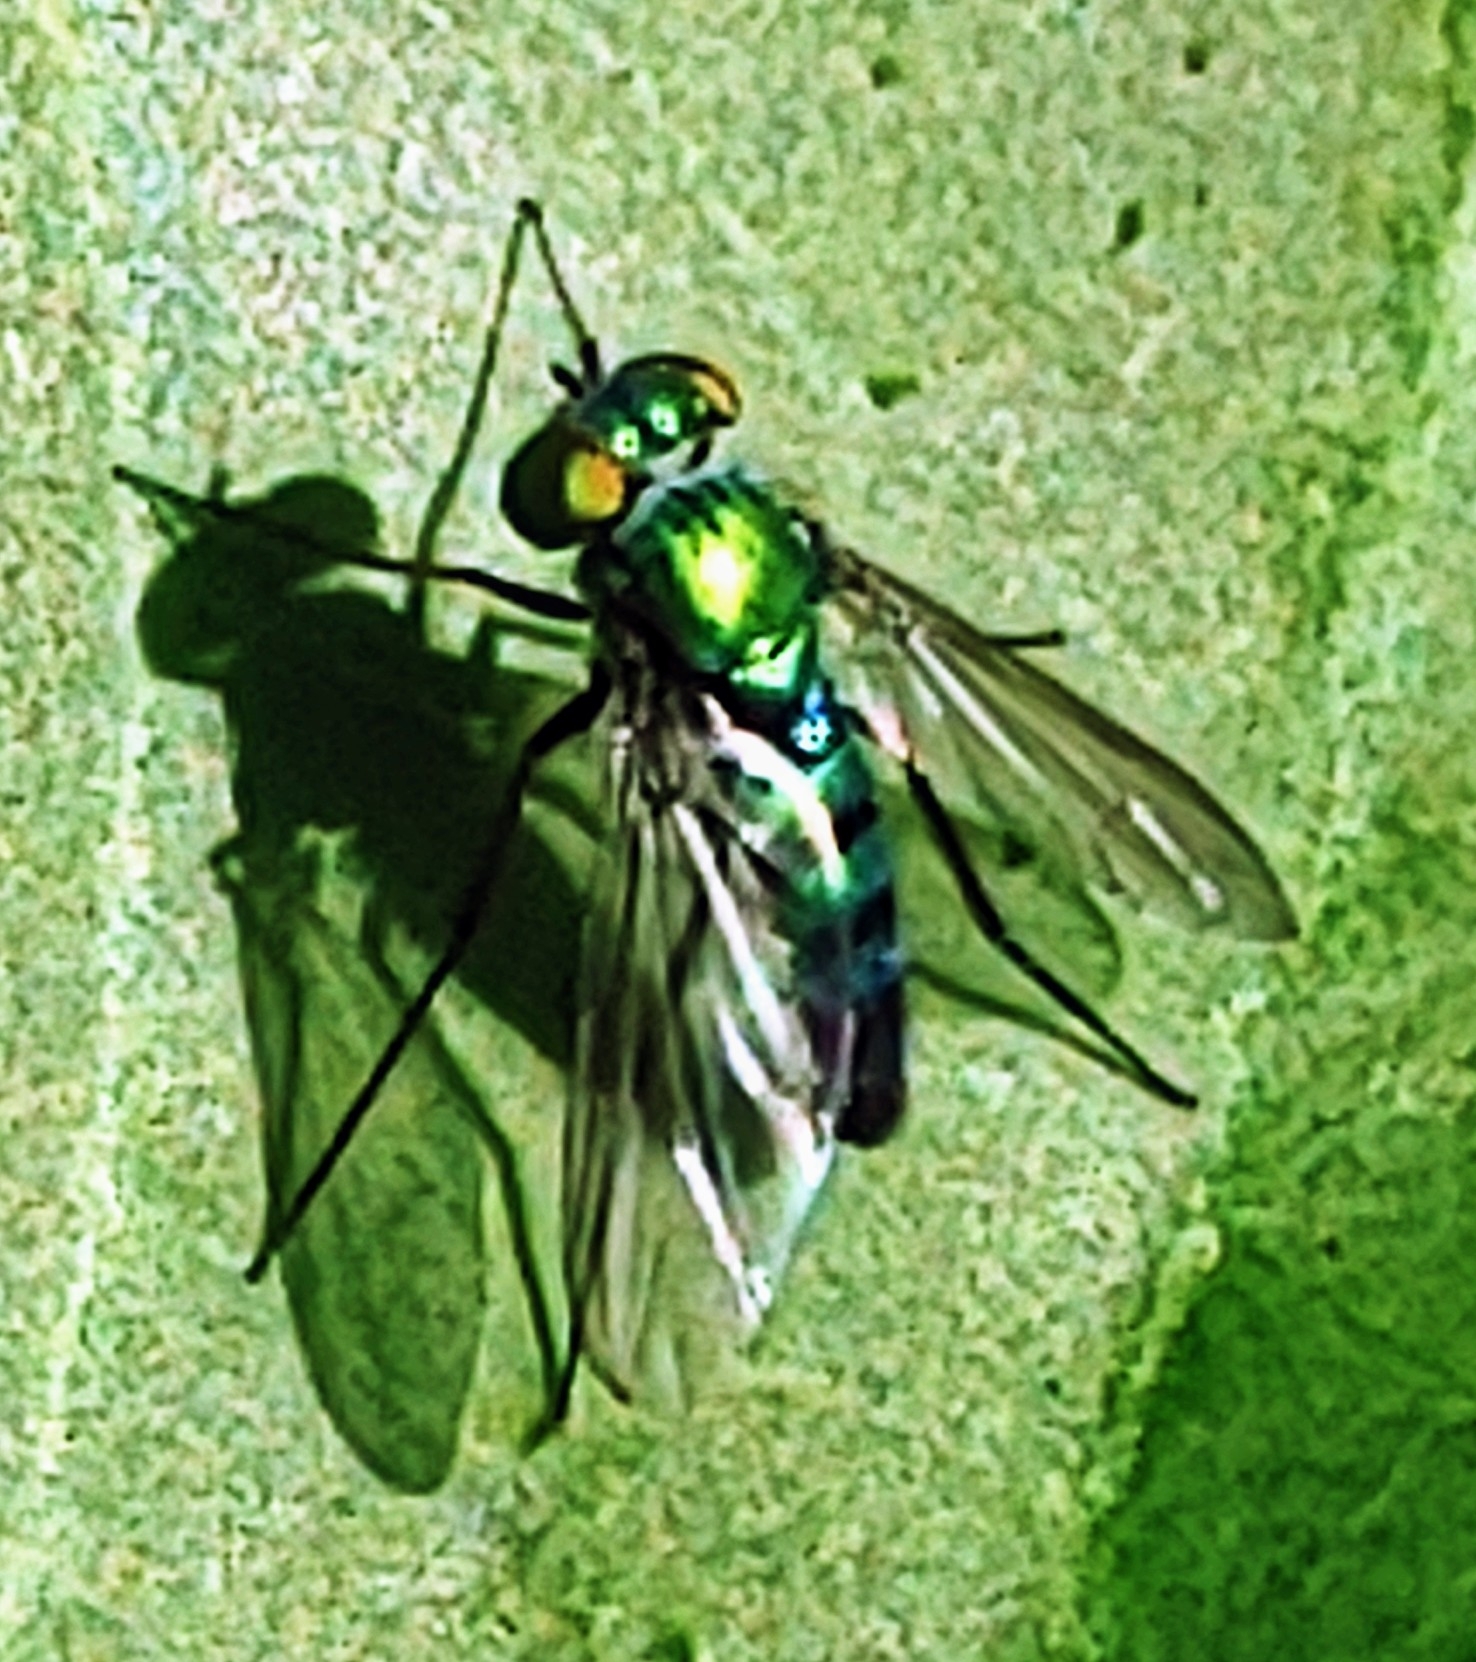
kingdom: Animalia
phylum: Arthropoda
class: Insecta
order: Diptera
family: Dolichopodidae
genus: Condylostylus
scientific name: Condylostylus longicornis
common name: Long-legged fly
